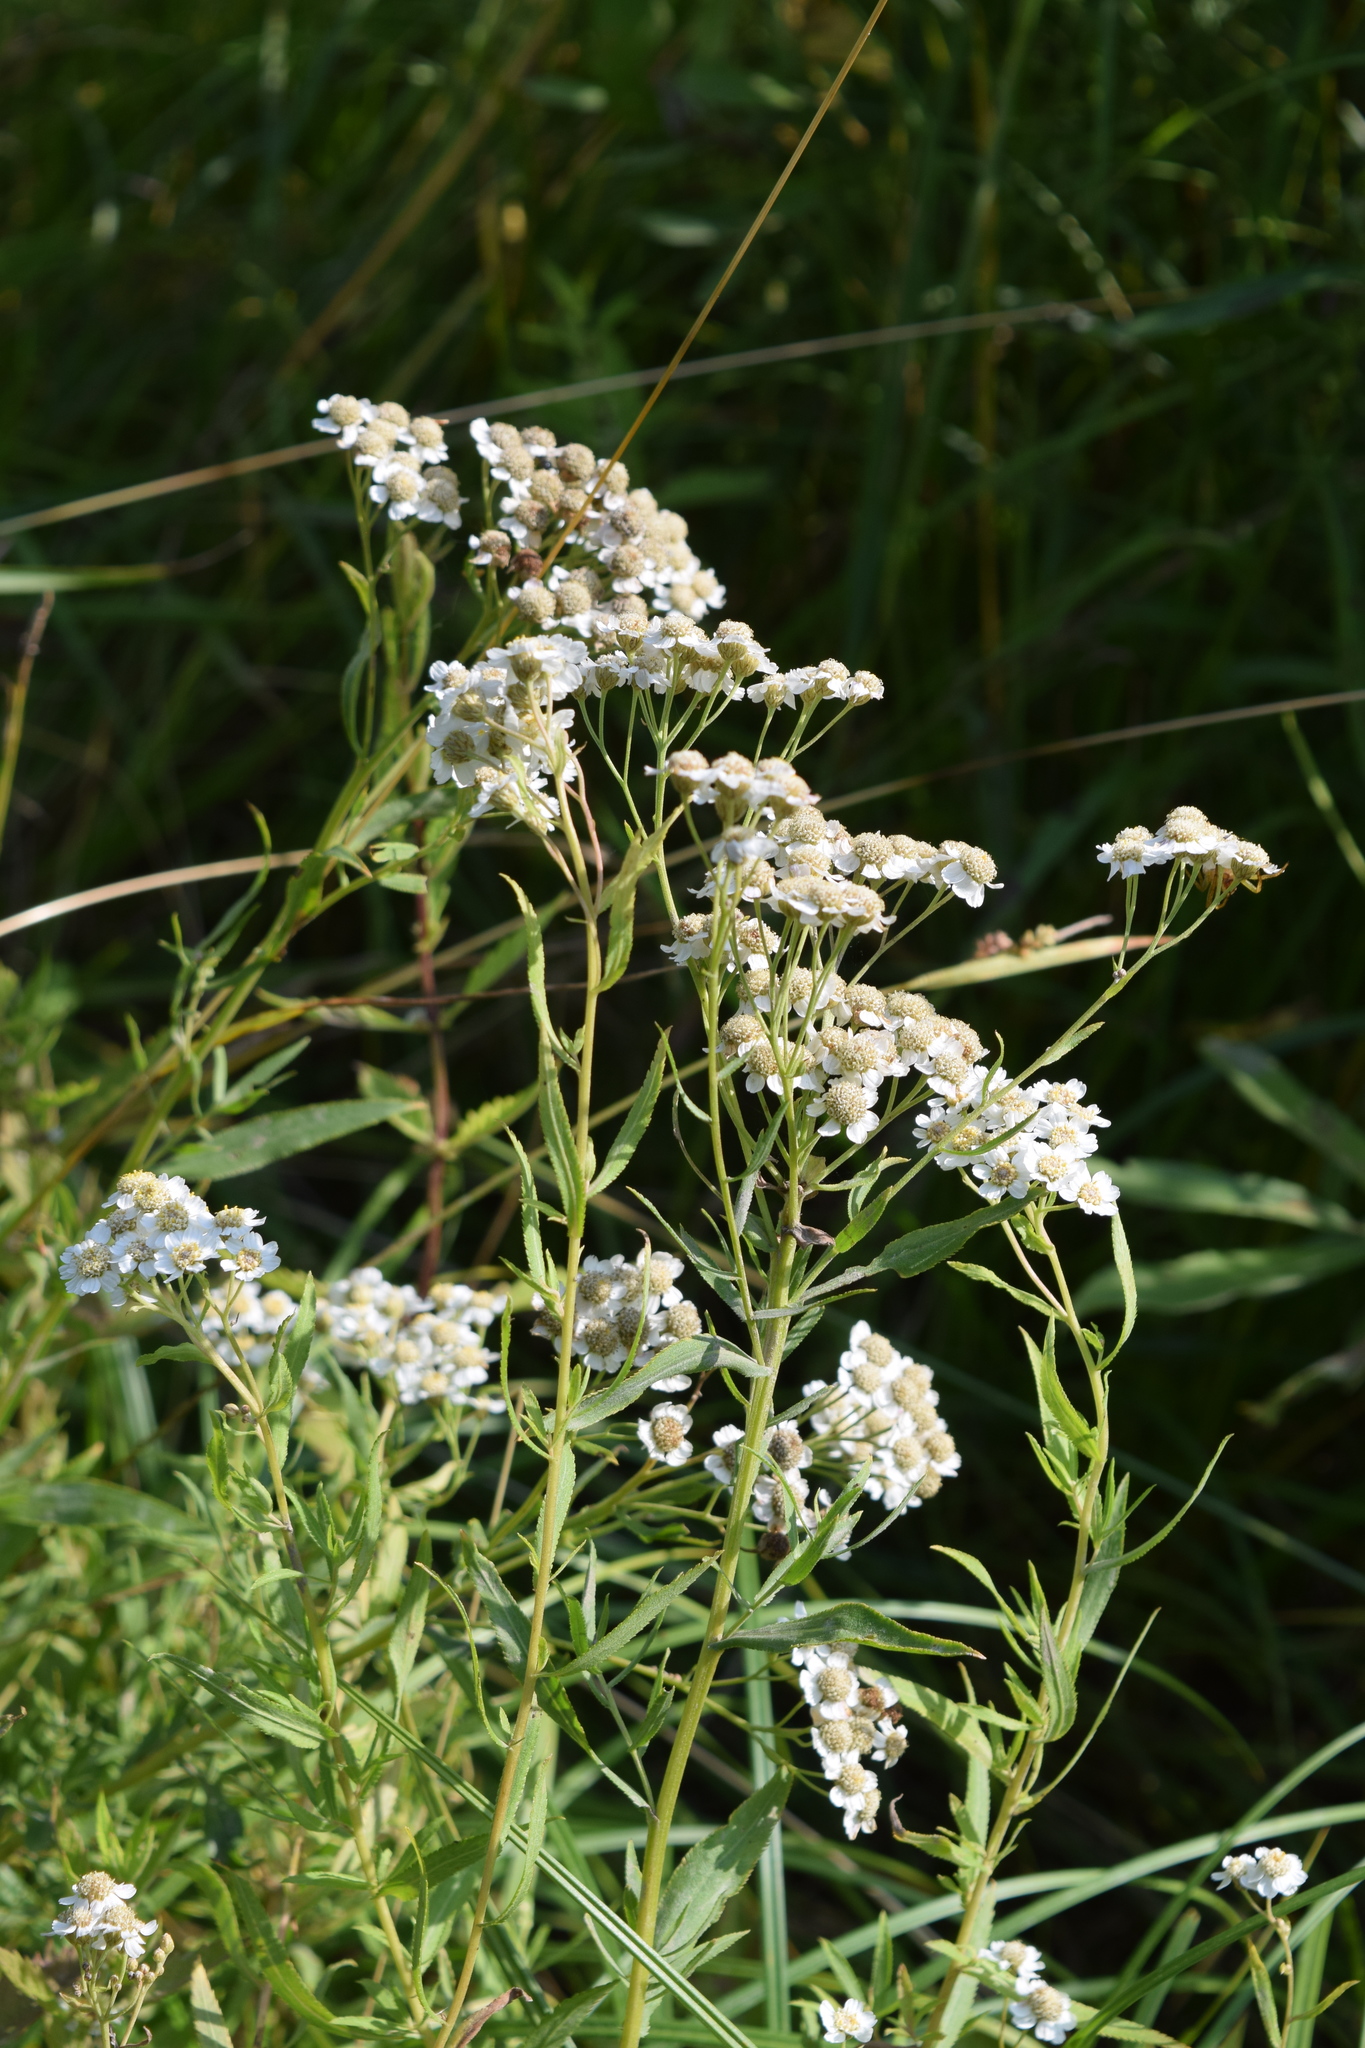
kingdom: Plantae
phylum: Tracheophyta
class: Magnoliopsida
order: Asterales
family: Asteraceae
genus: Achillea
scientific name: Achillea salicifolia
